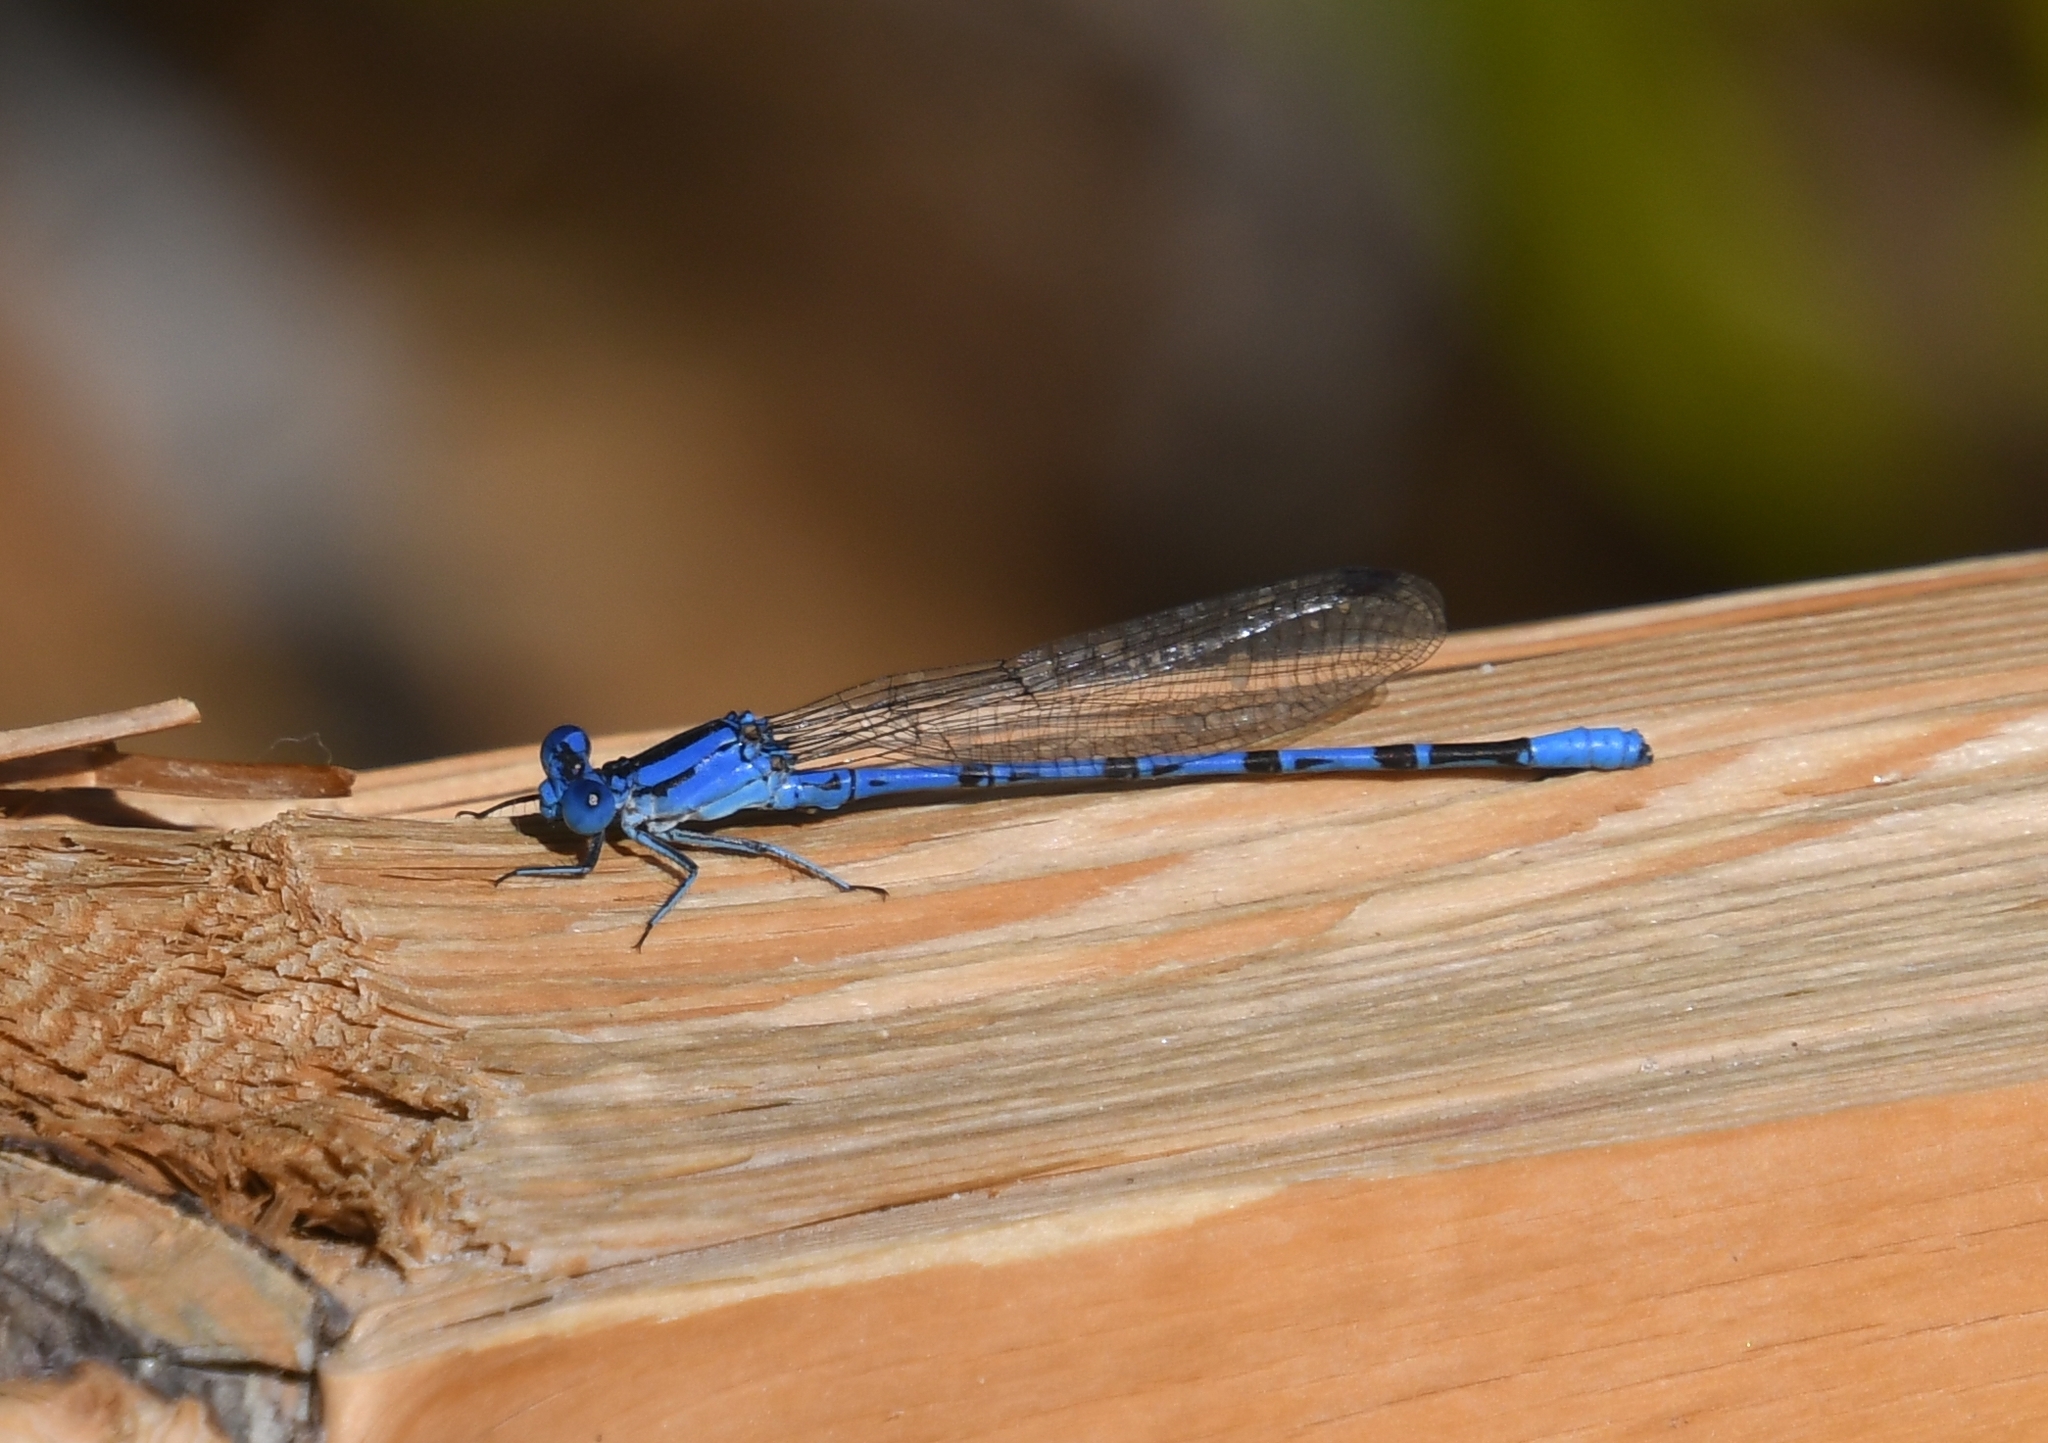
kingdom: Animalia
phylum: Arthropoda
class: Insecta
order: Odonata
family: Coenagrionidae
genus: Argia
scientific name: Argia vivida
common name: Vivid dancer
